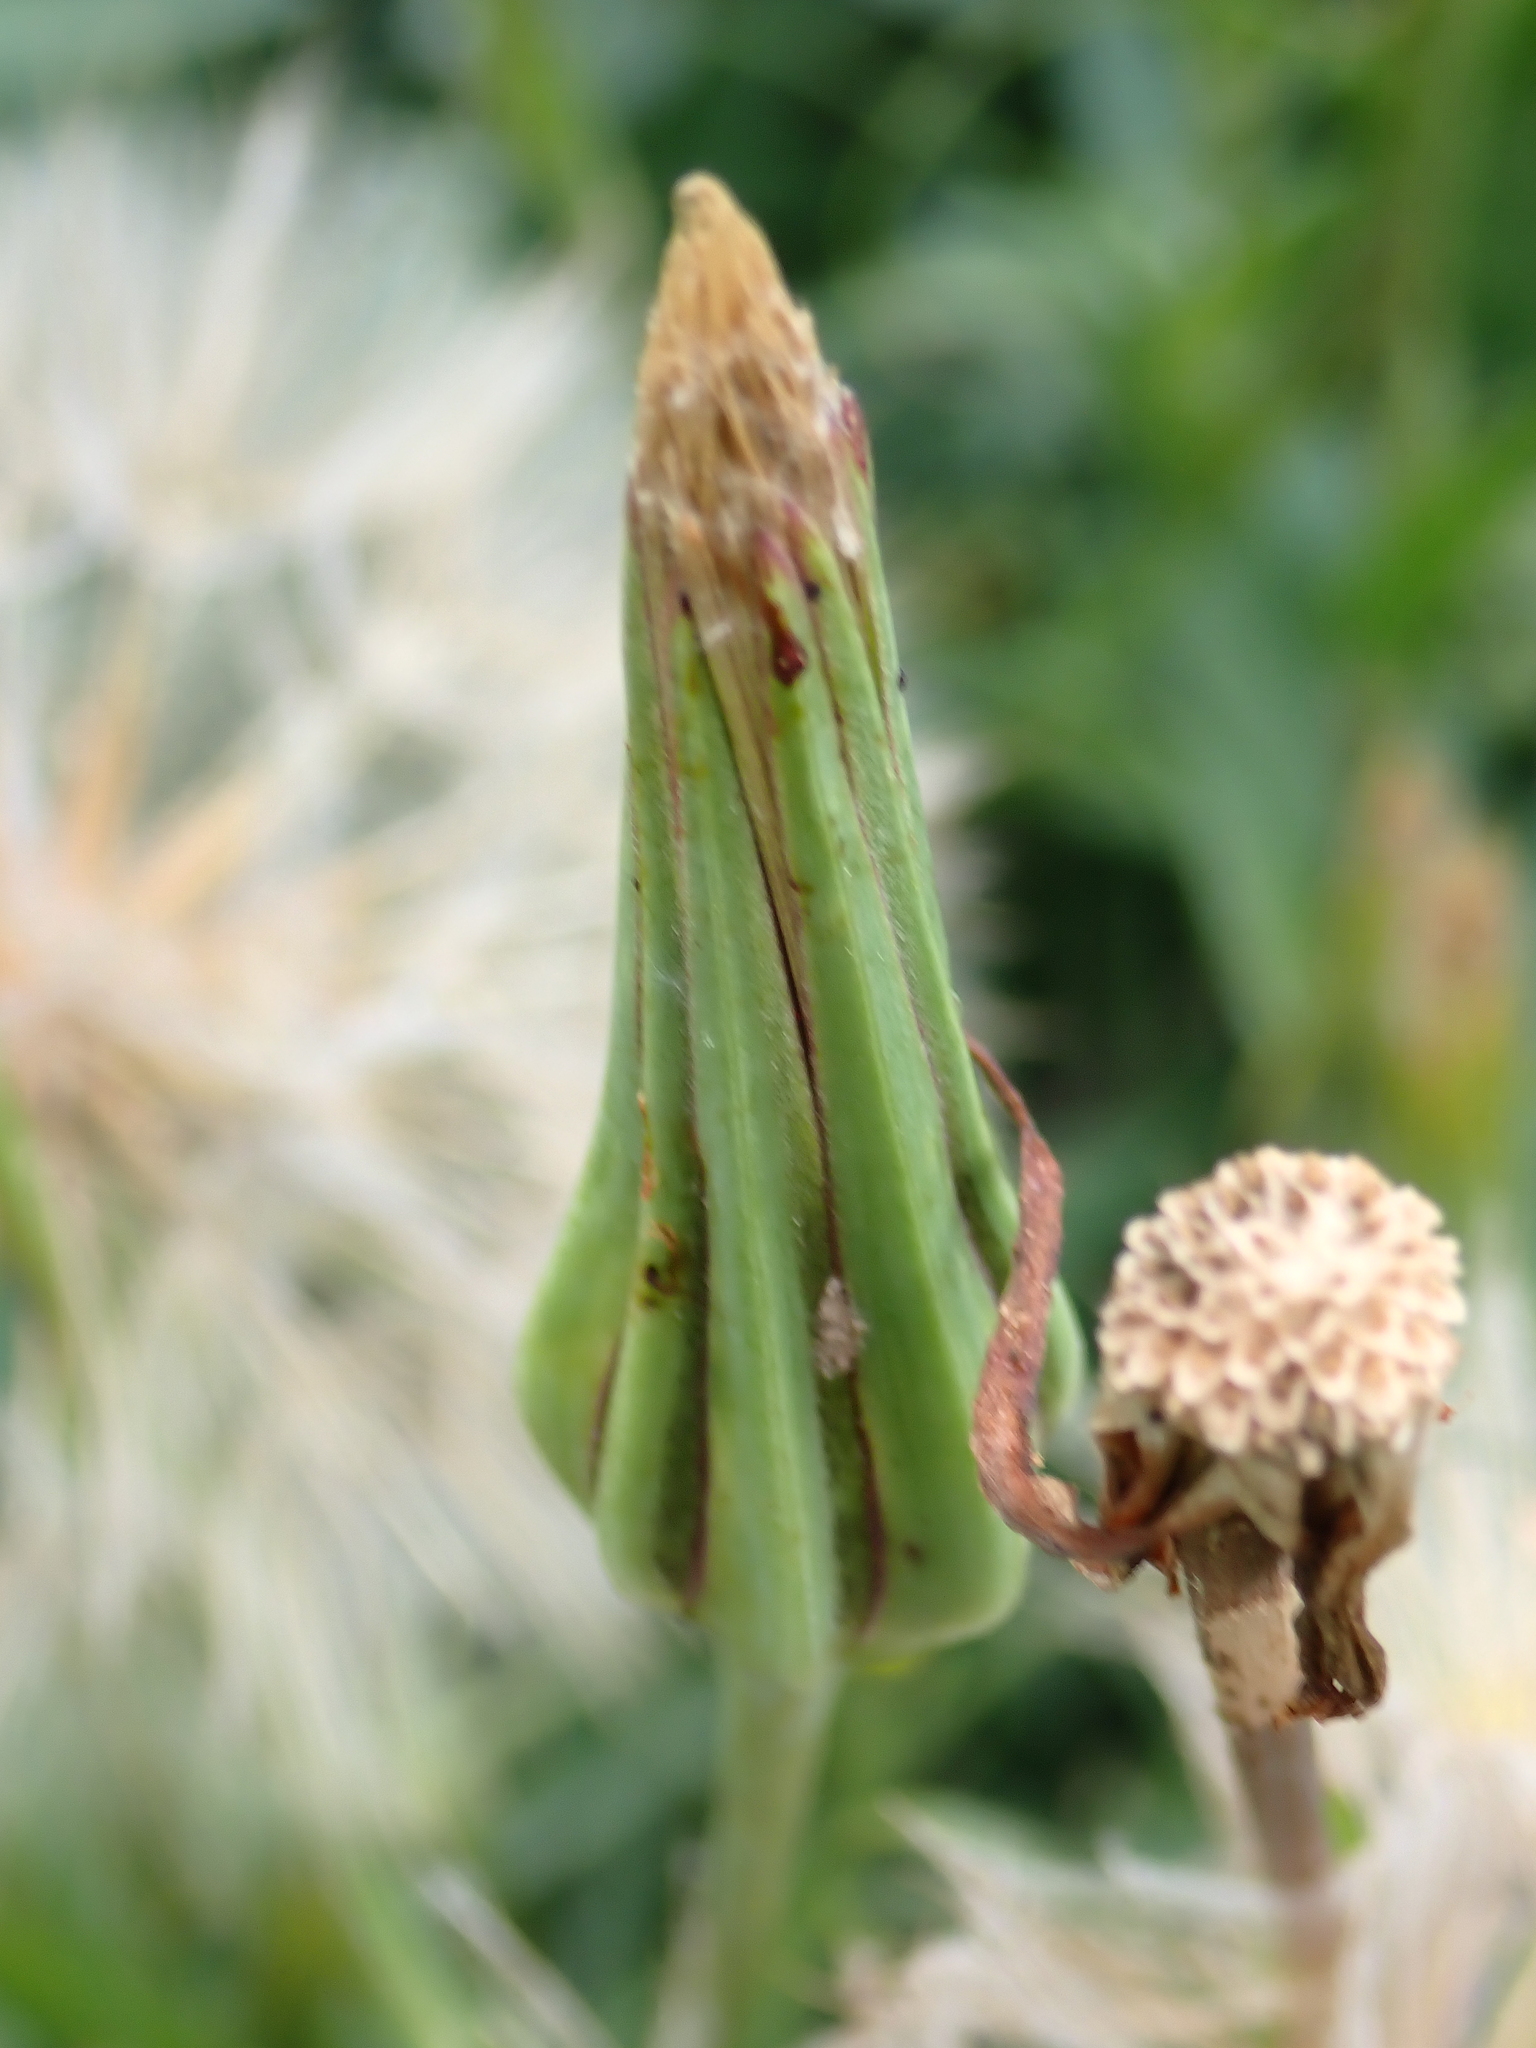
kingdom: Plantae
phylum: Tracheophyta
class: Magnoliopsida
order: Asterales
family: Asteraceae
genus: Tragopogon
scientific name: Tragopogon minor
